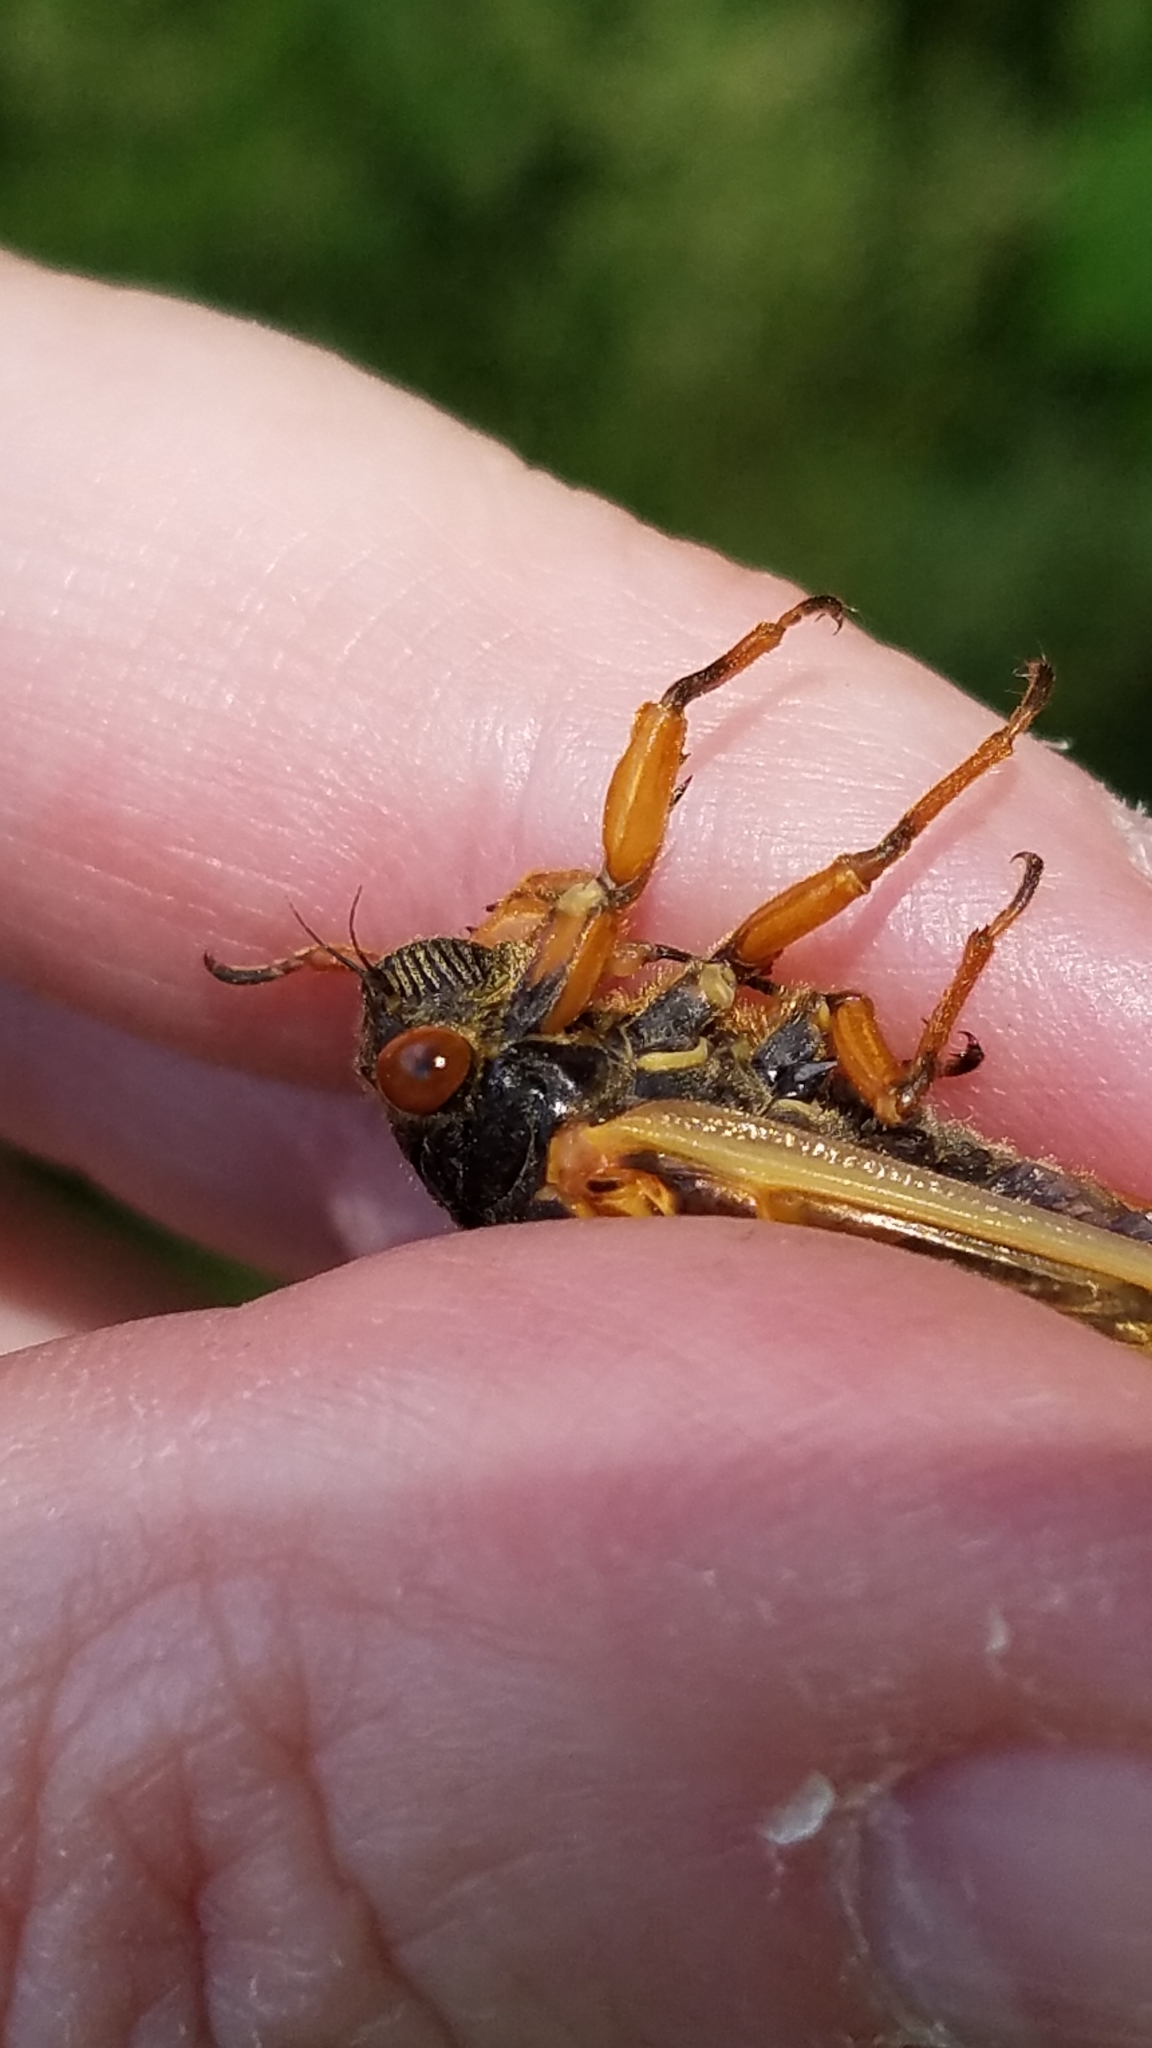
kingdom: Animalia
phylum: Arthropoda
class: Insecta
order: Hemiptera
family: Cicadidae
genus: Magicicada
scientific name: Magicicada cassini
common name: Cassin's 17-year cicada
